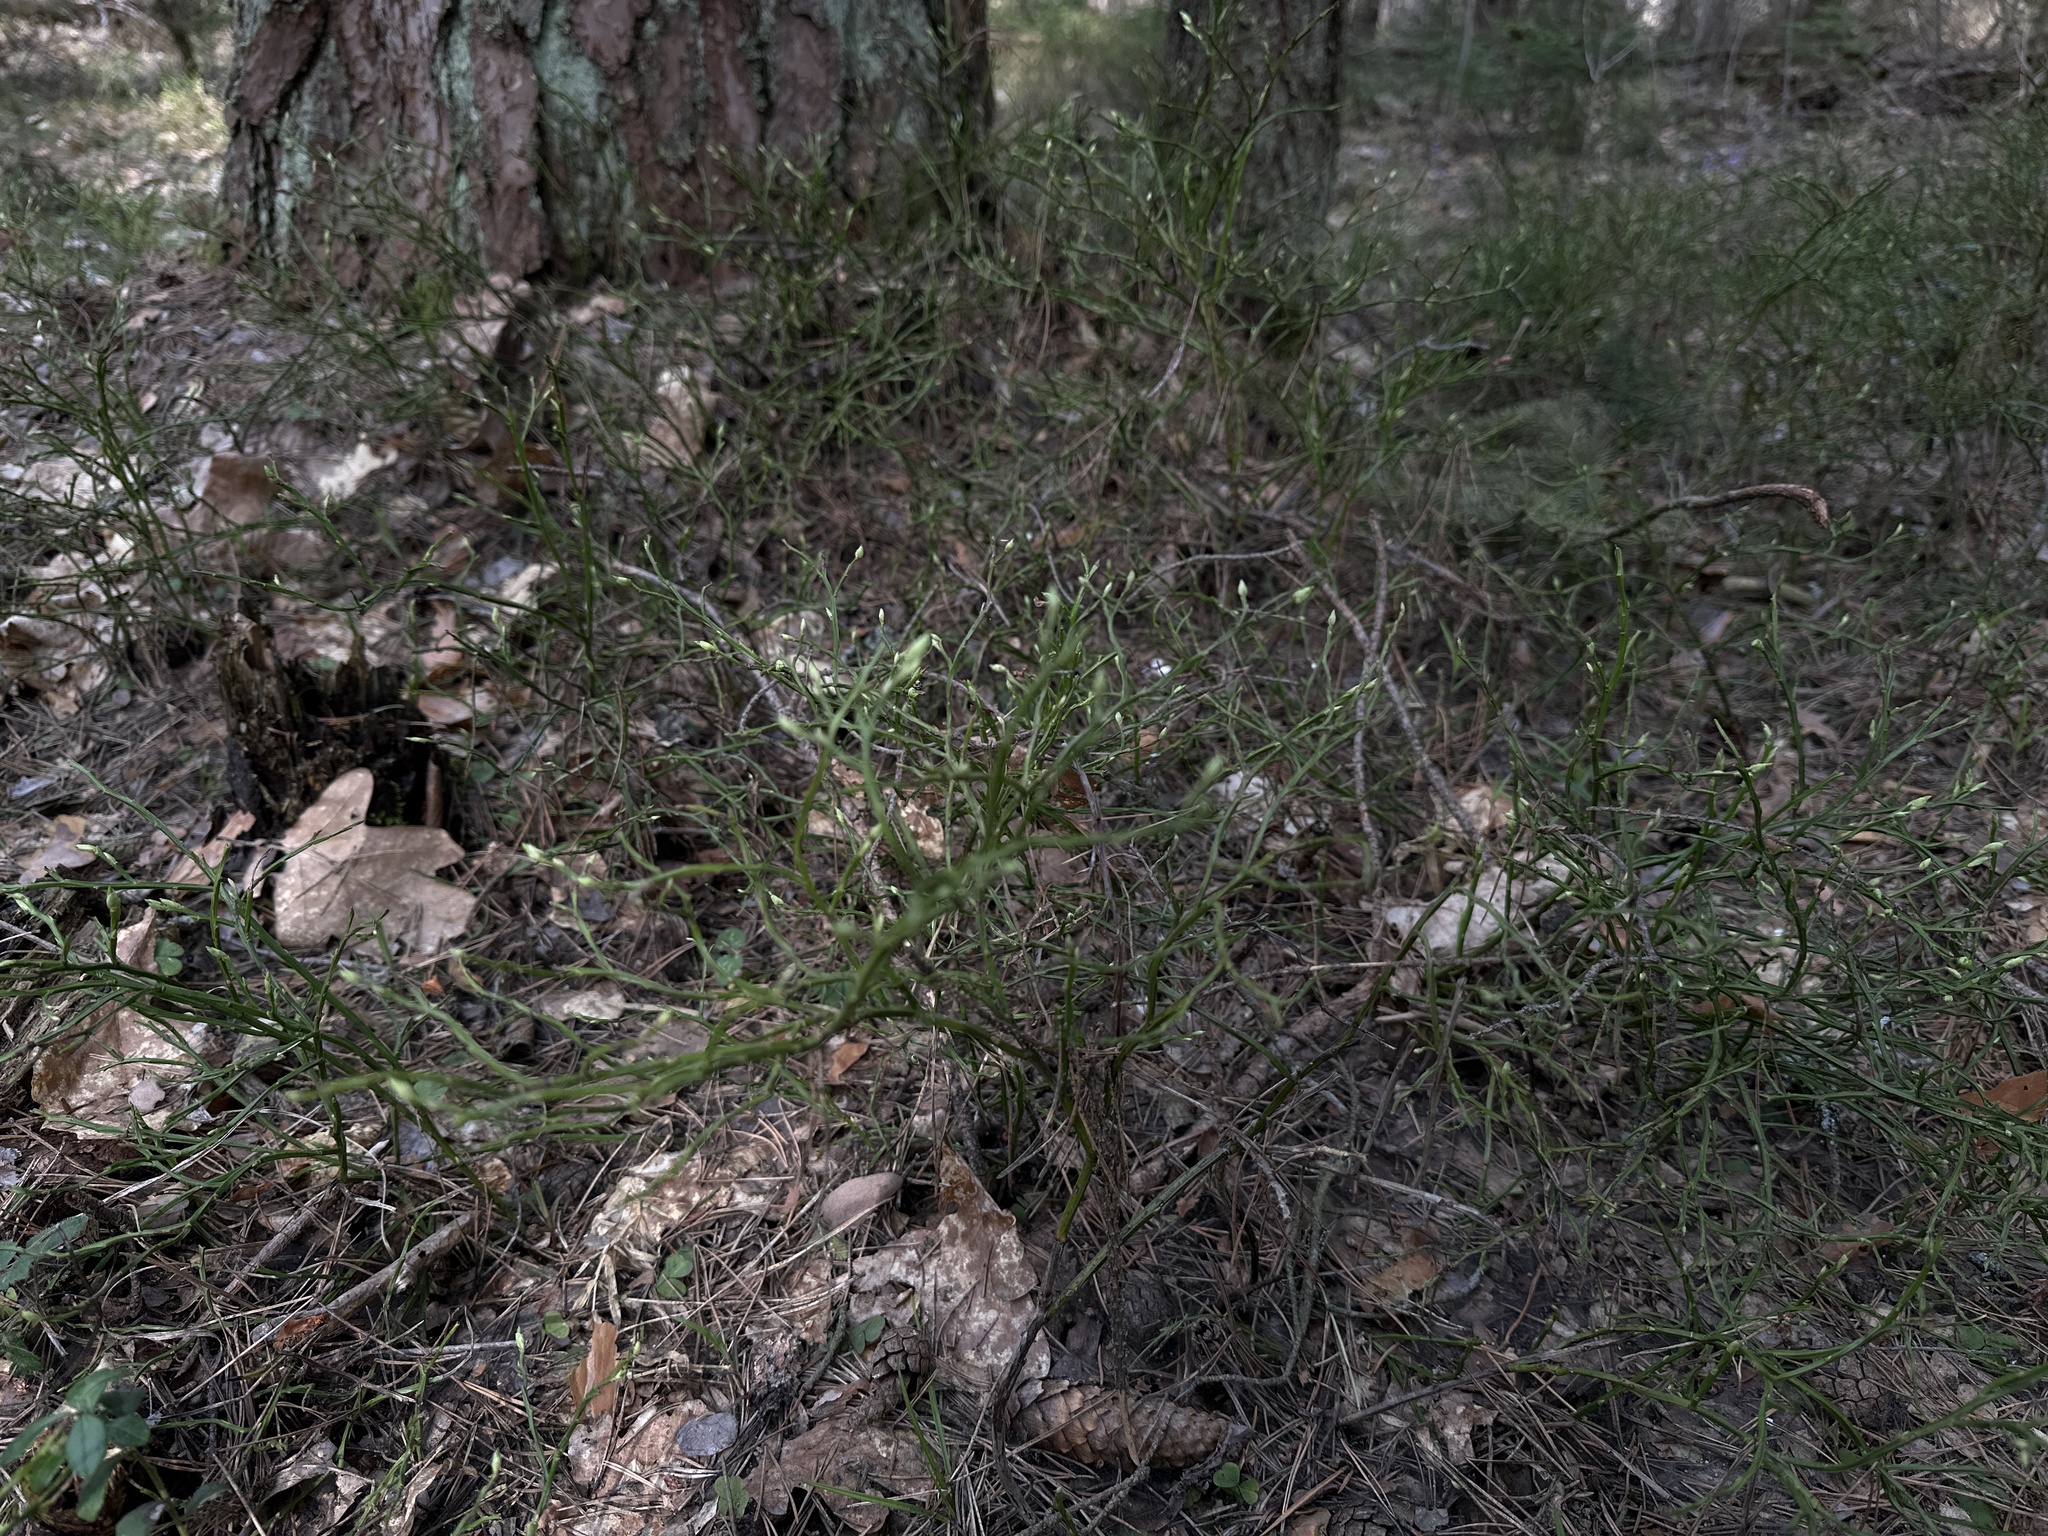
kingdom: Plantae
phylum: Tracheophyta
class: Magnoliopsida
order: Ericales
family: Ericaceae
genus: Vaccinium
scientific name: Vaccinium myrtillus
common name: Bilberry
